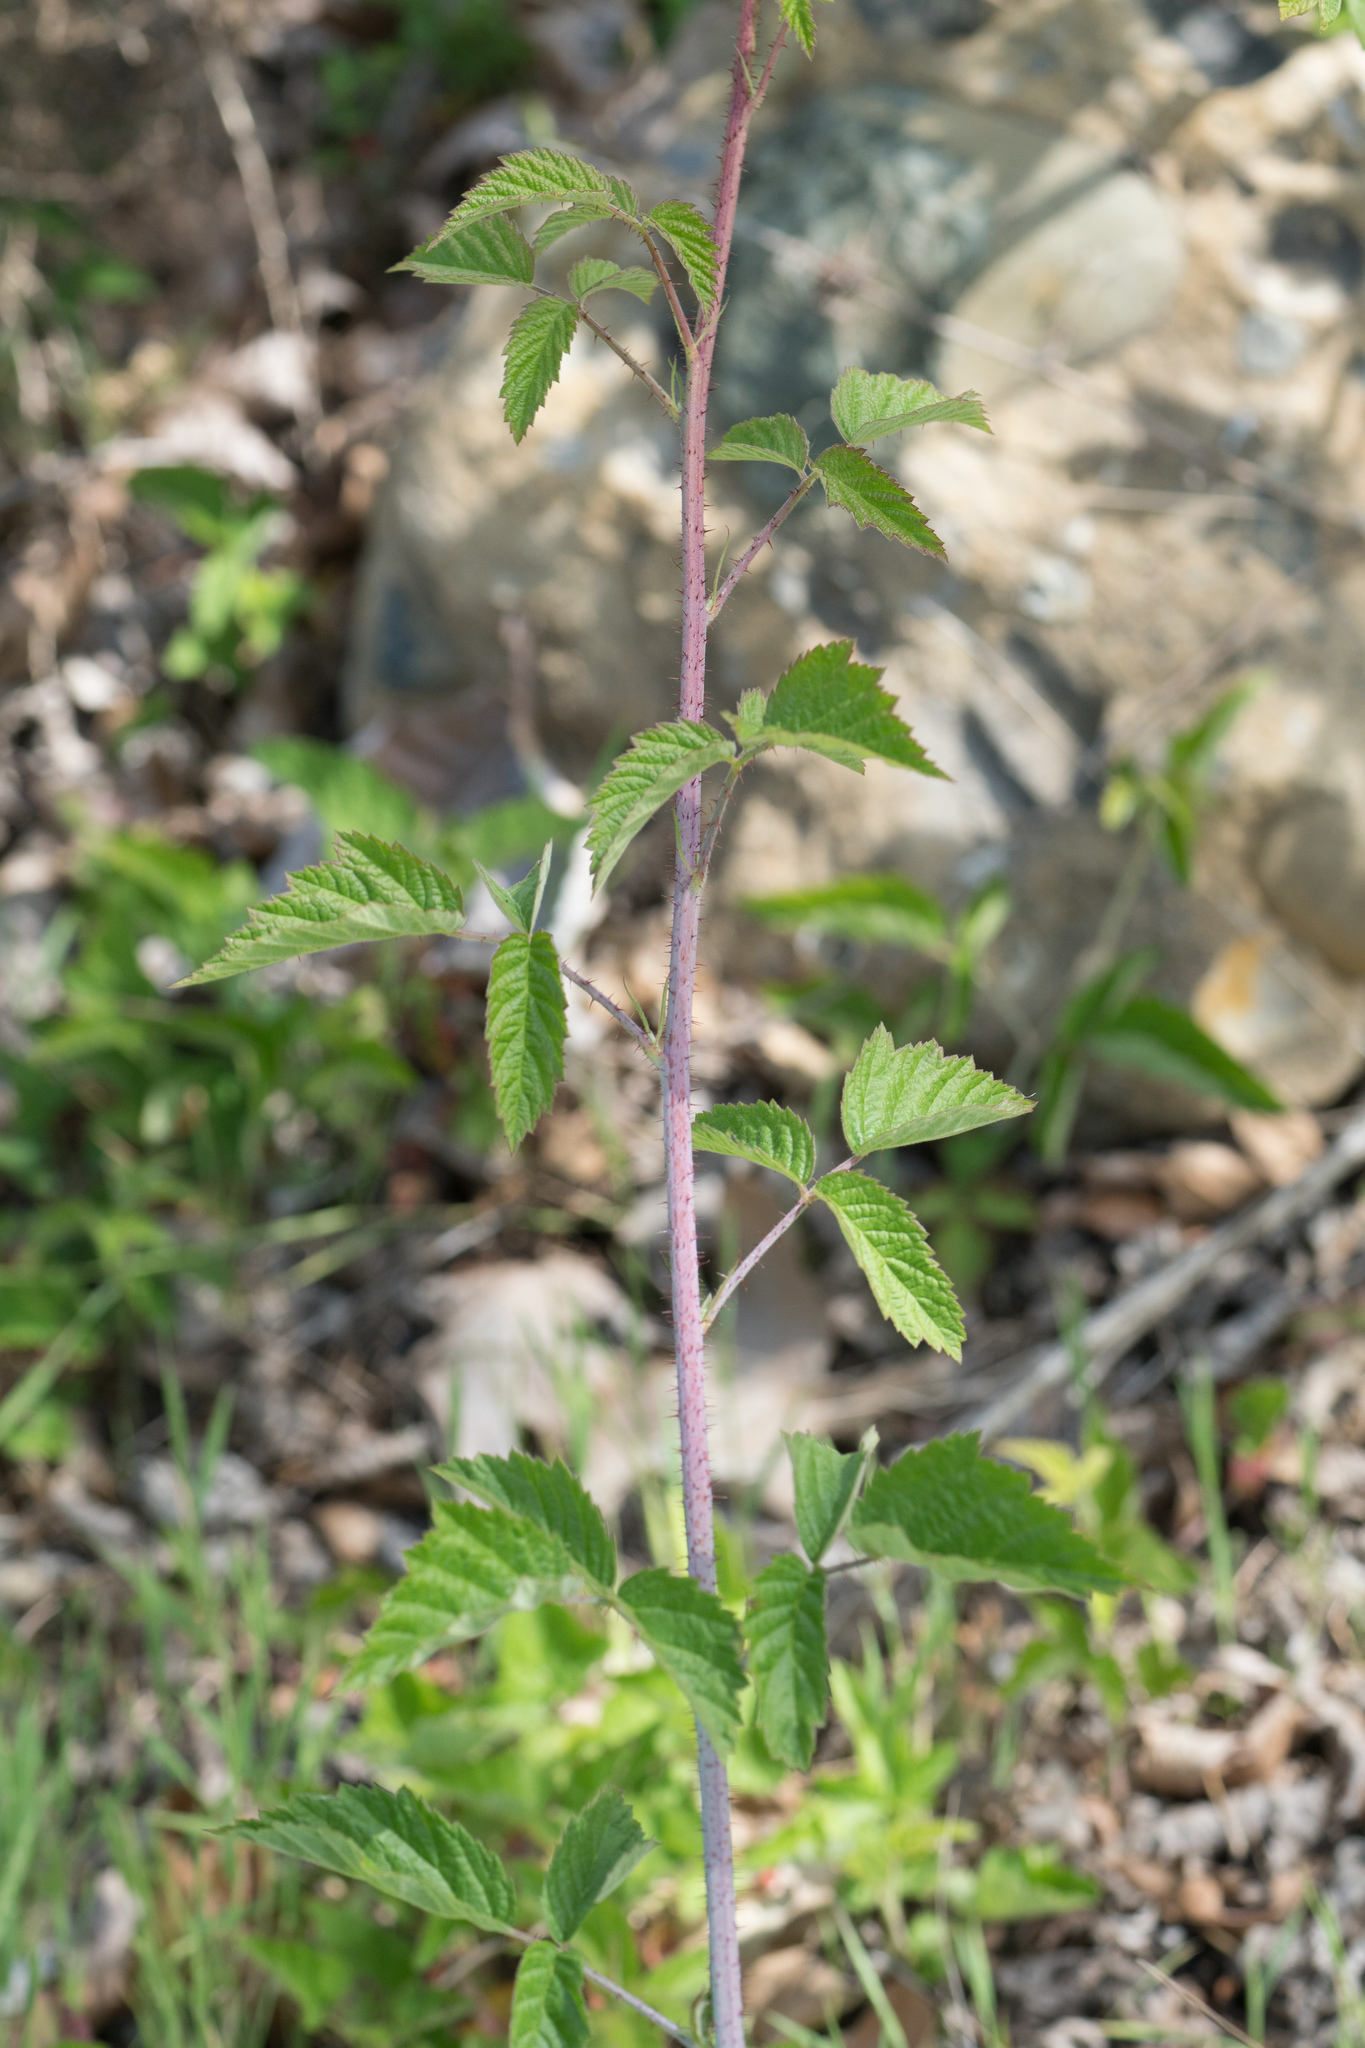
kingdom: Plantae
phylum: Tracheophyta
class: Magnoliopsida
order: Rosales
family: Rosaceae
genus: Rubus
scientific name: Rubus ursinus
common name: Pacific blackberry
